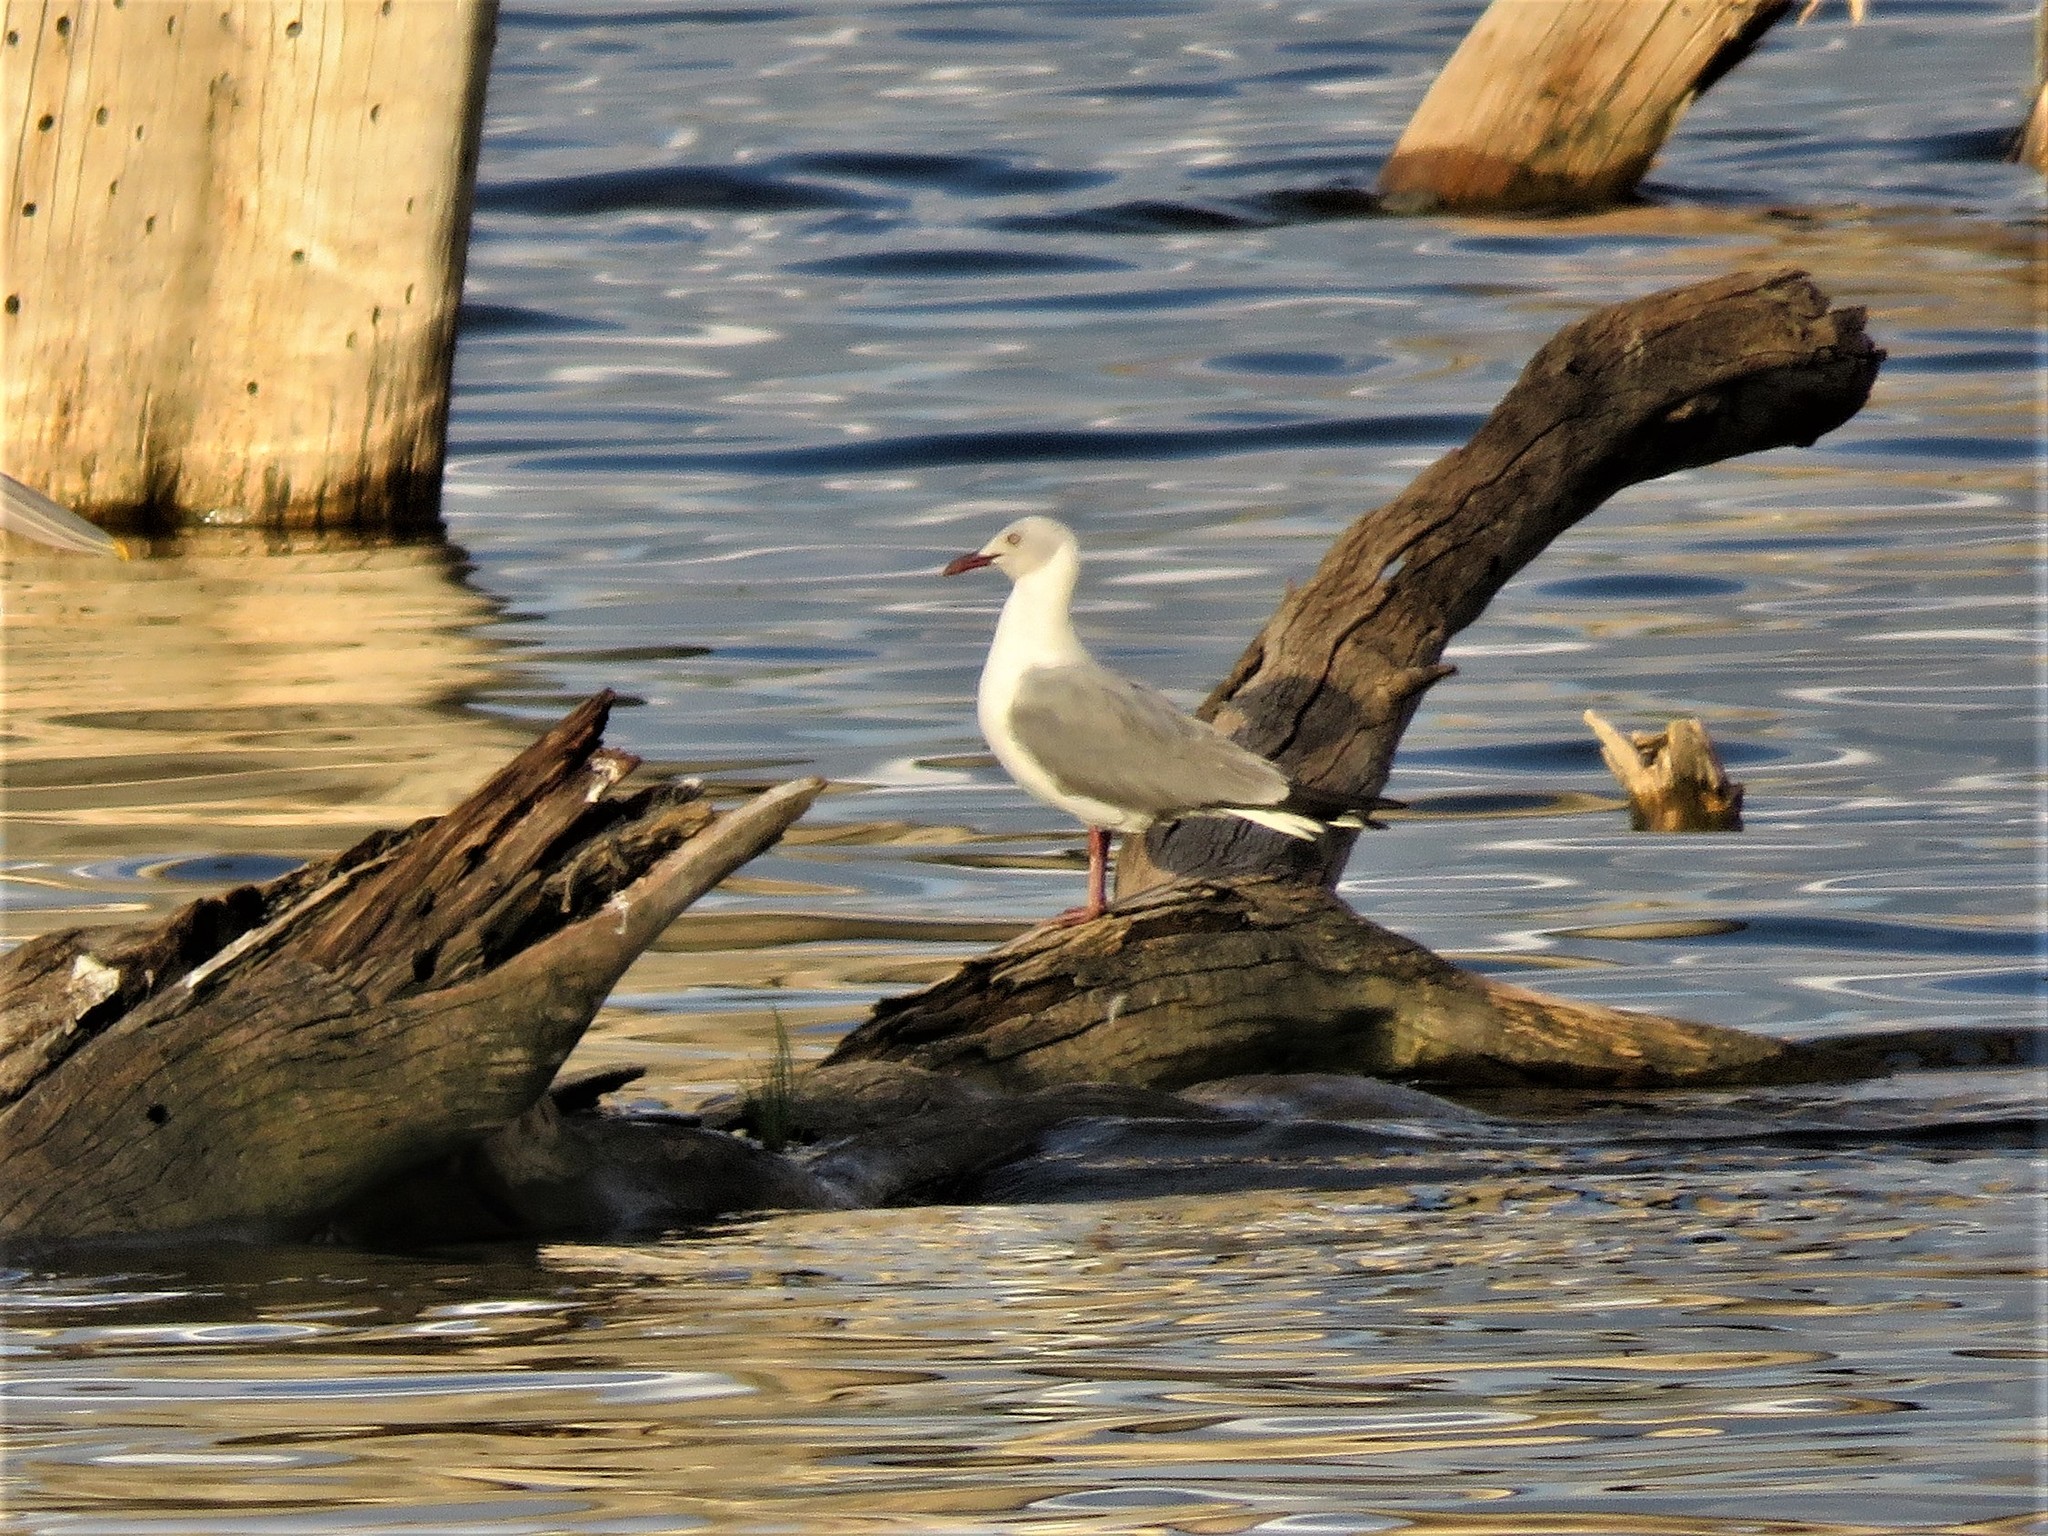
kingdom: Animalia
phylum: Chordata
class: Aves
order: Charadriiformes
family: Laridae
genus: Chroicocephalus
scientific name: Chroicocephalus cirrocephalus
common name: Grey-headed gull
